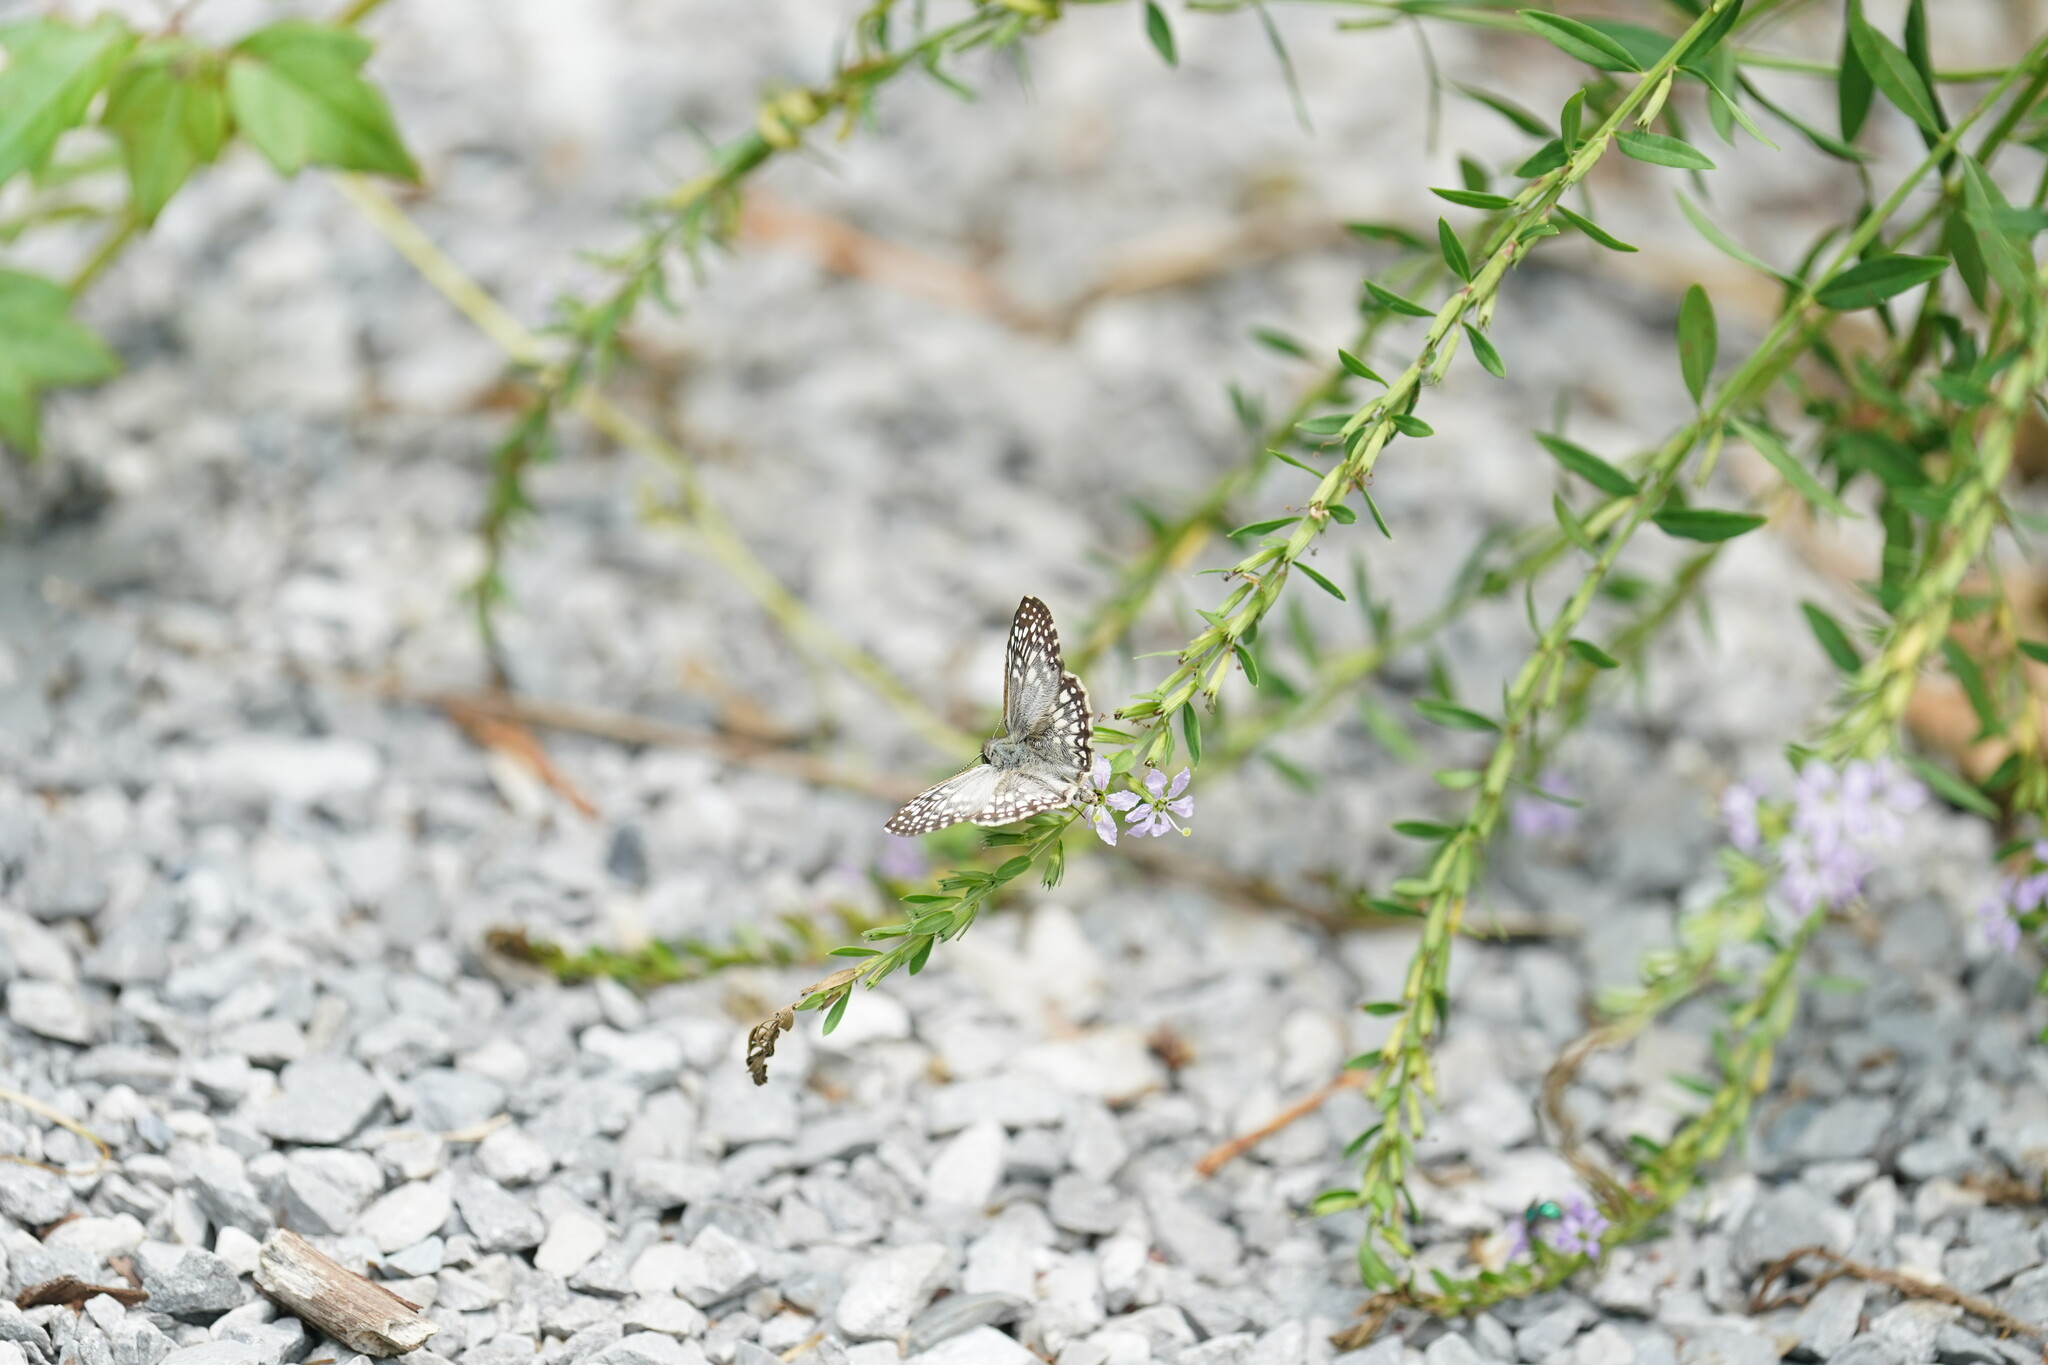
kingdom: Animalia
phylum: Arthropoda
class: Insecta
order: Lepidoptera
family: Hesperiidae
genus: Pyrgus
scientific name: Pyrgus oileus
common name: Tropical checkered-skipper
